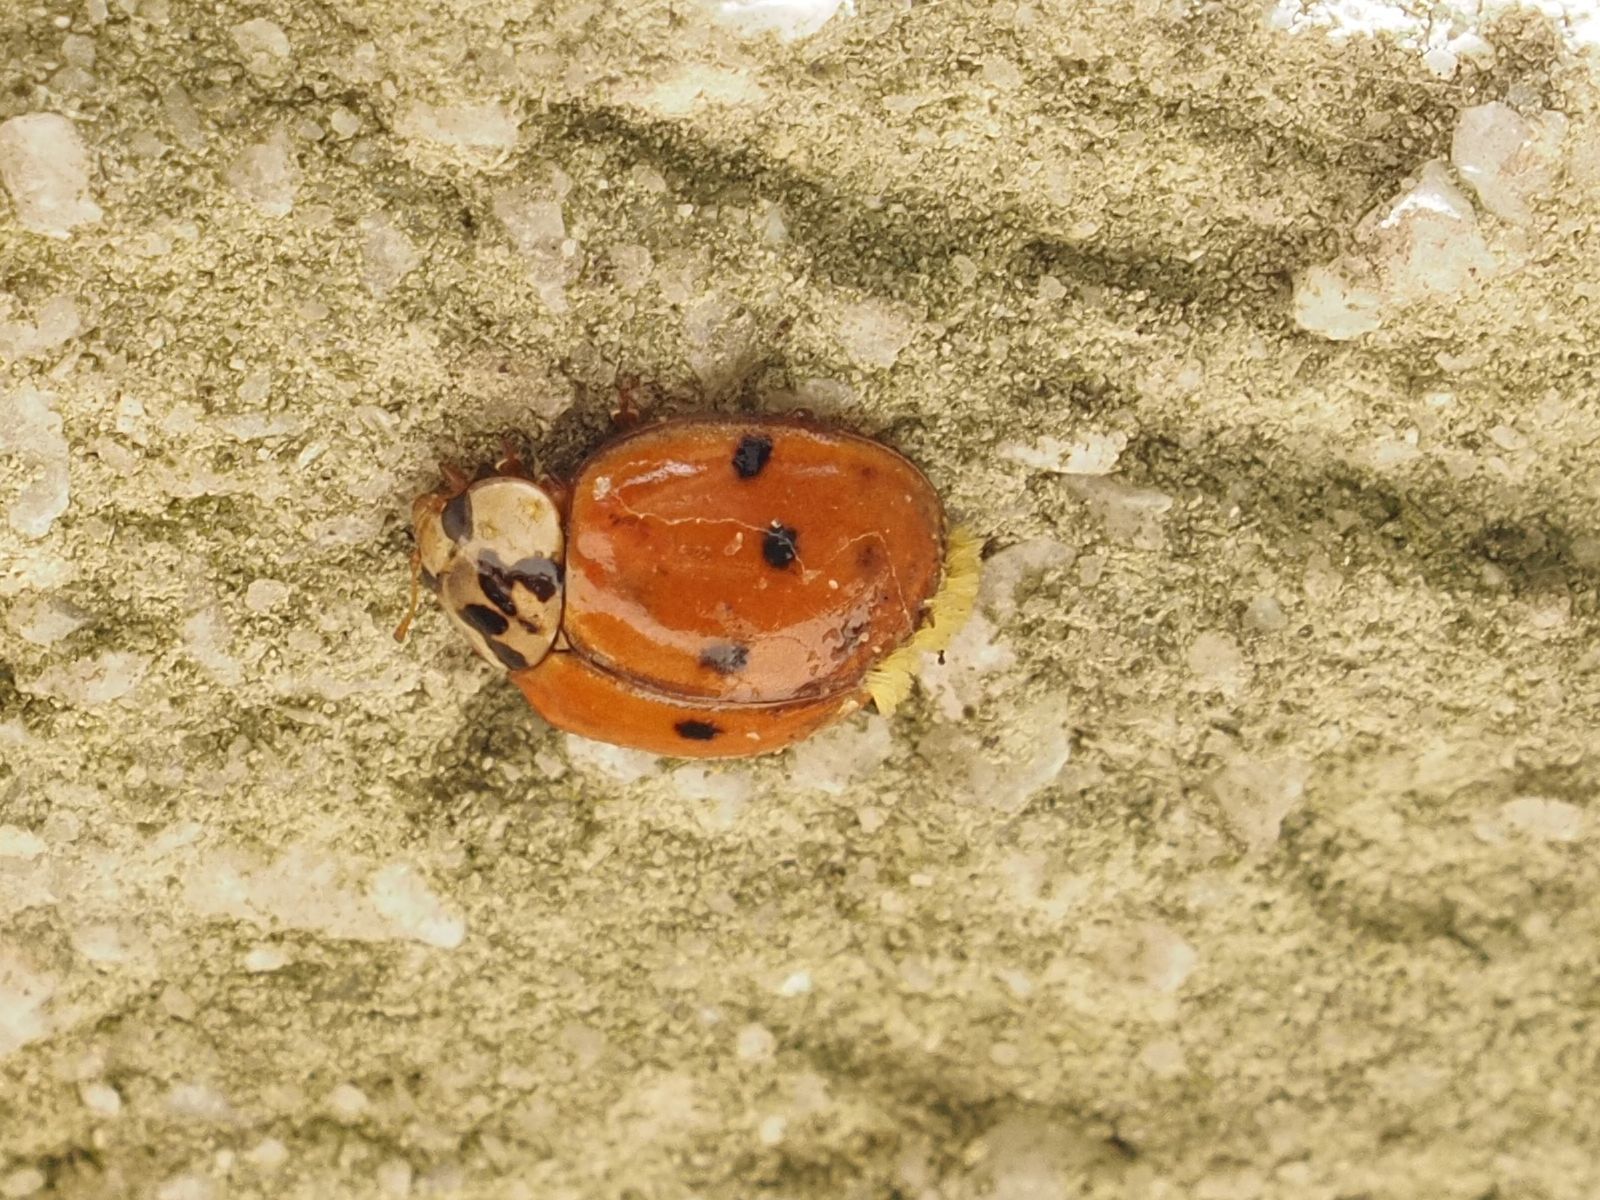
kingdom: Fungi
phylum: Ascomycota
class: Laboulbeniomycetes
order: Laboulbeniales
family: Laboulbeniaceae
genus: Hesperomyces
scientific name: Hesperomyces harmoniae
